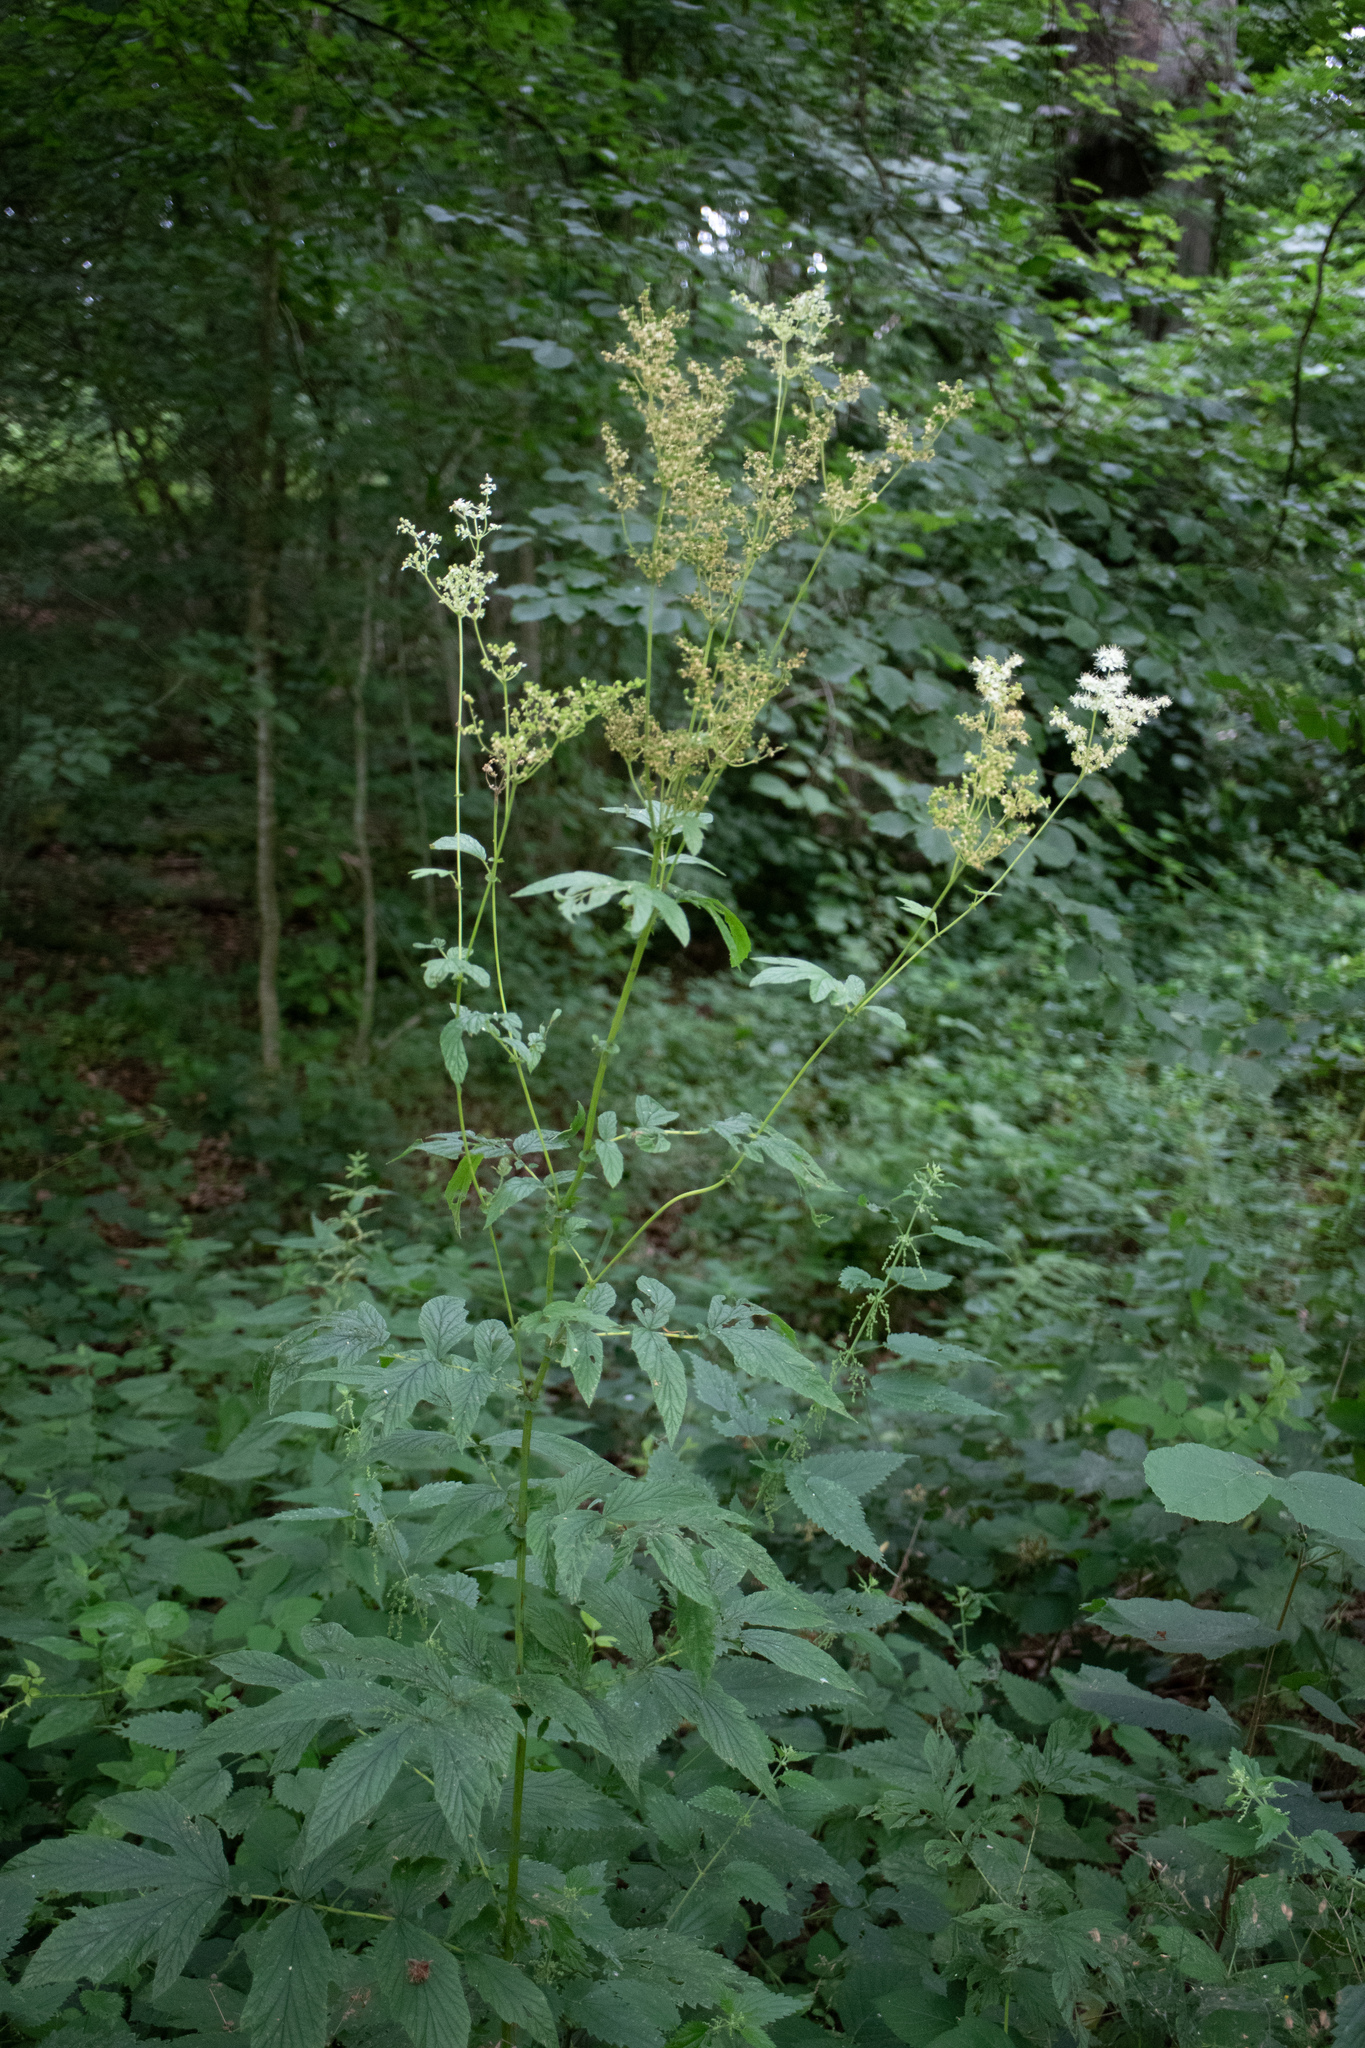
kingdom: Plantae
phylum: Tracheophyta
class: Magnoliopsida
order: Rosales
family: Rosaceae
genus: Filipendula
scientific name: Filipendula ulmaria
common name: Meadowsweet
